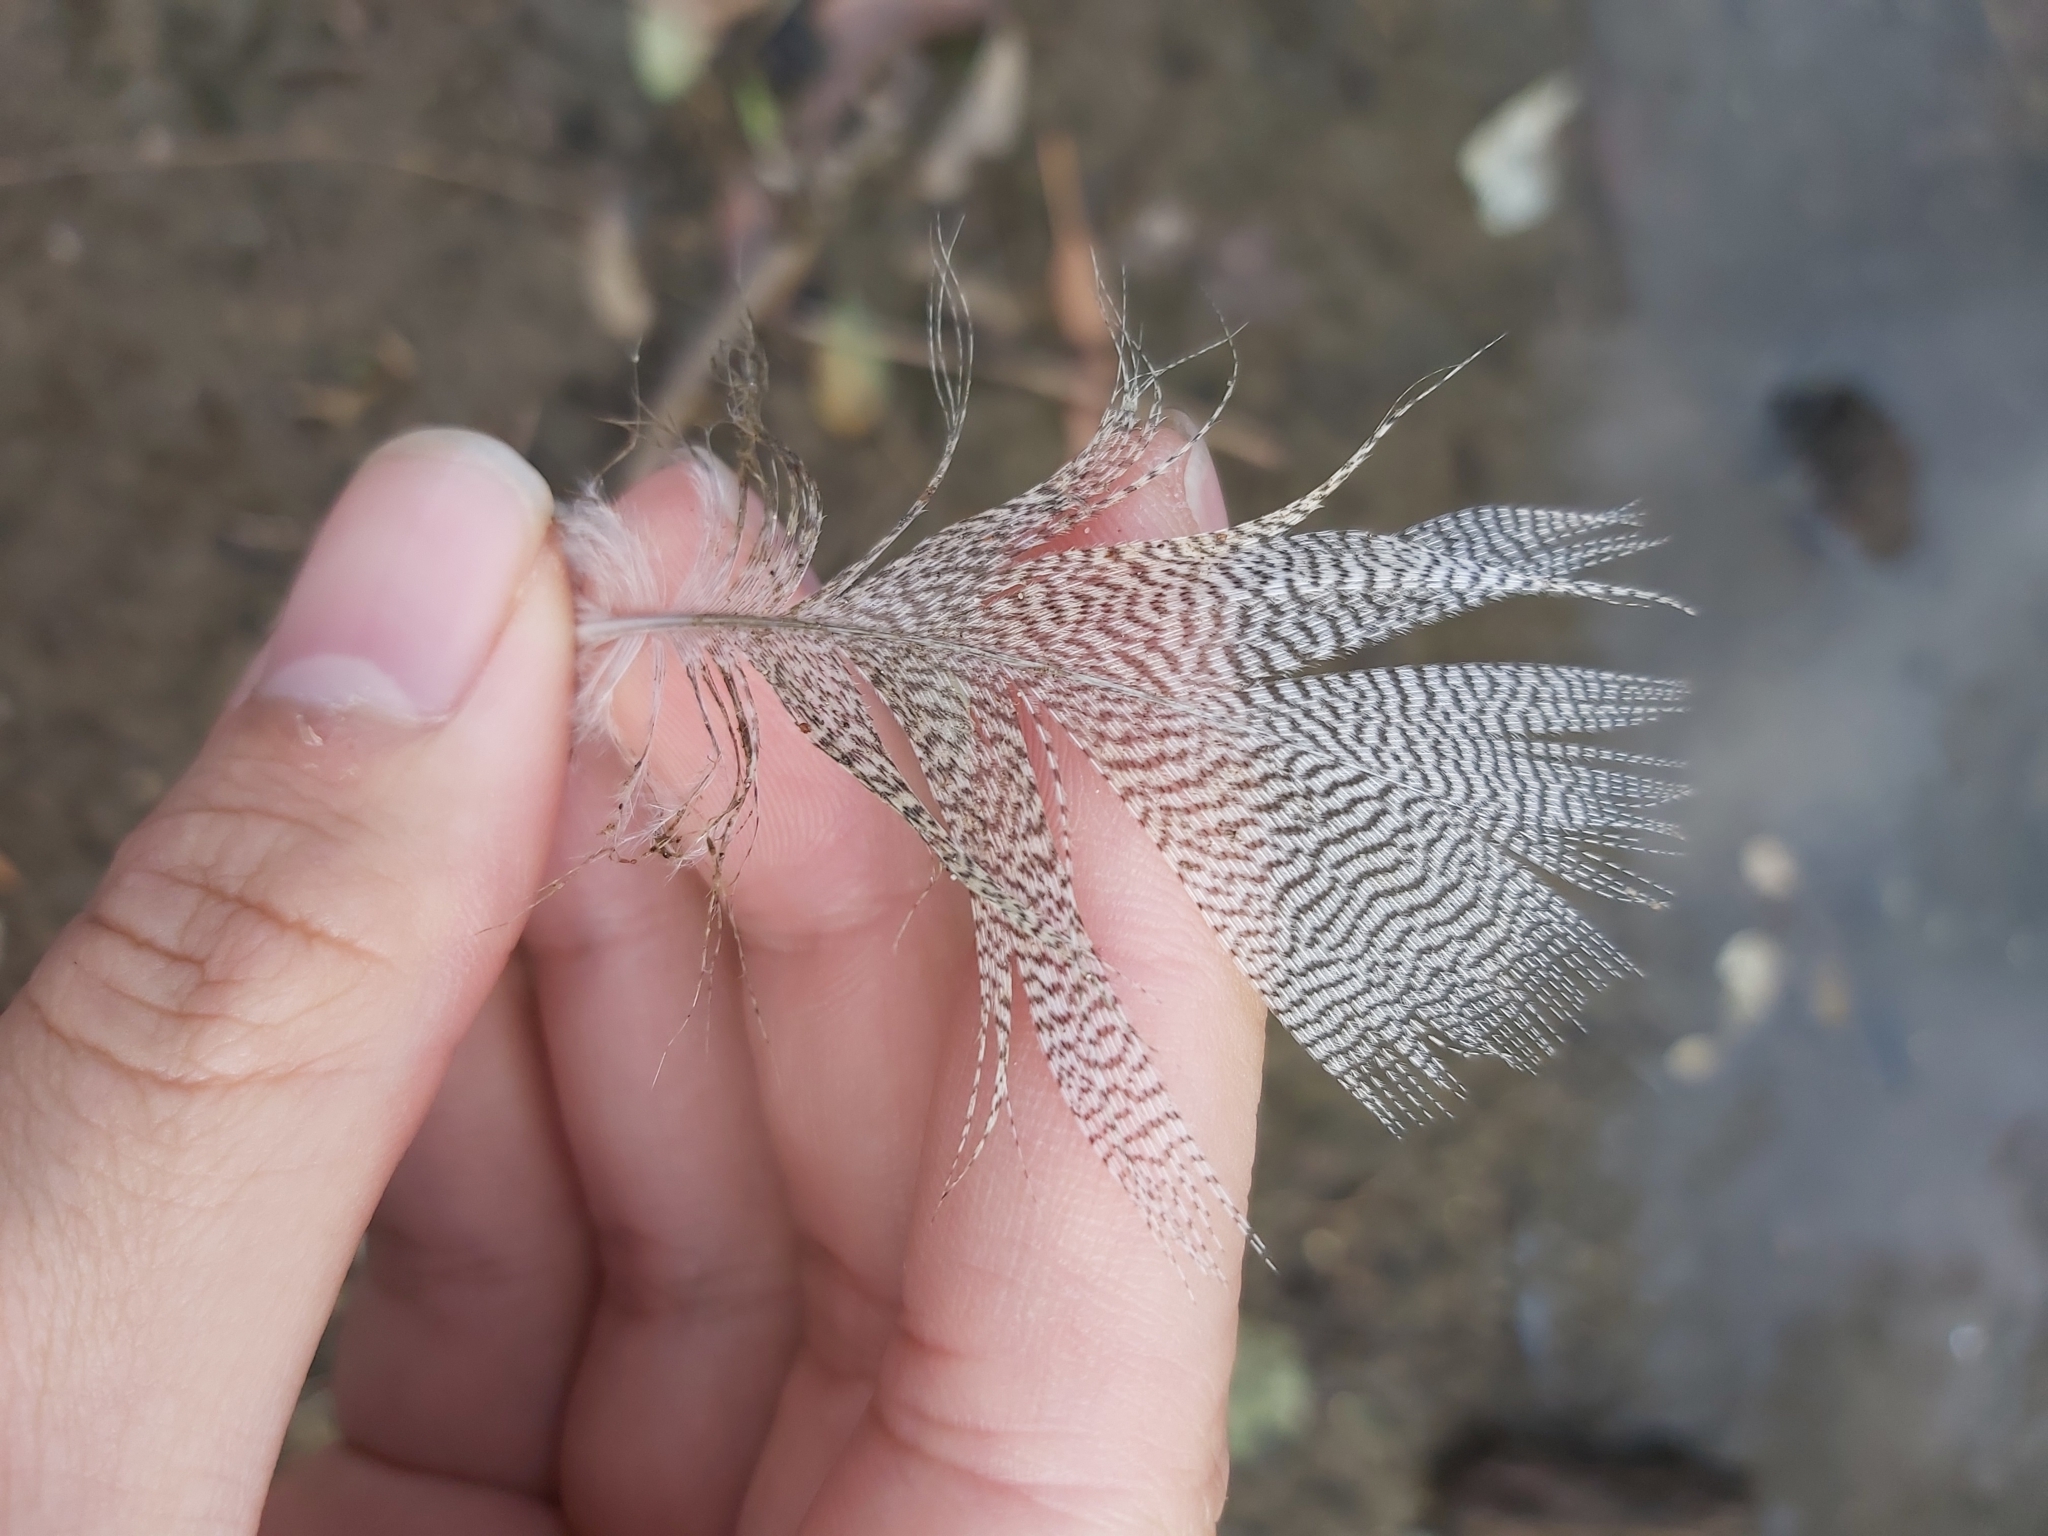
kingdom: Animalia
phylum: Chordata
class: Aves
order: Anseriformes
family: Anatidae
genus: Chenonetta
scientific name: Chenonetta jubata
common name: Maned duck
